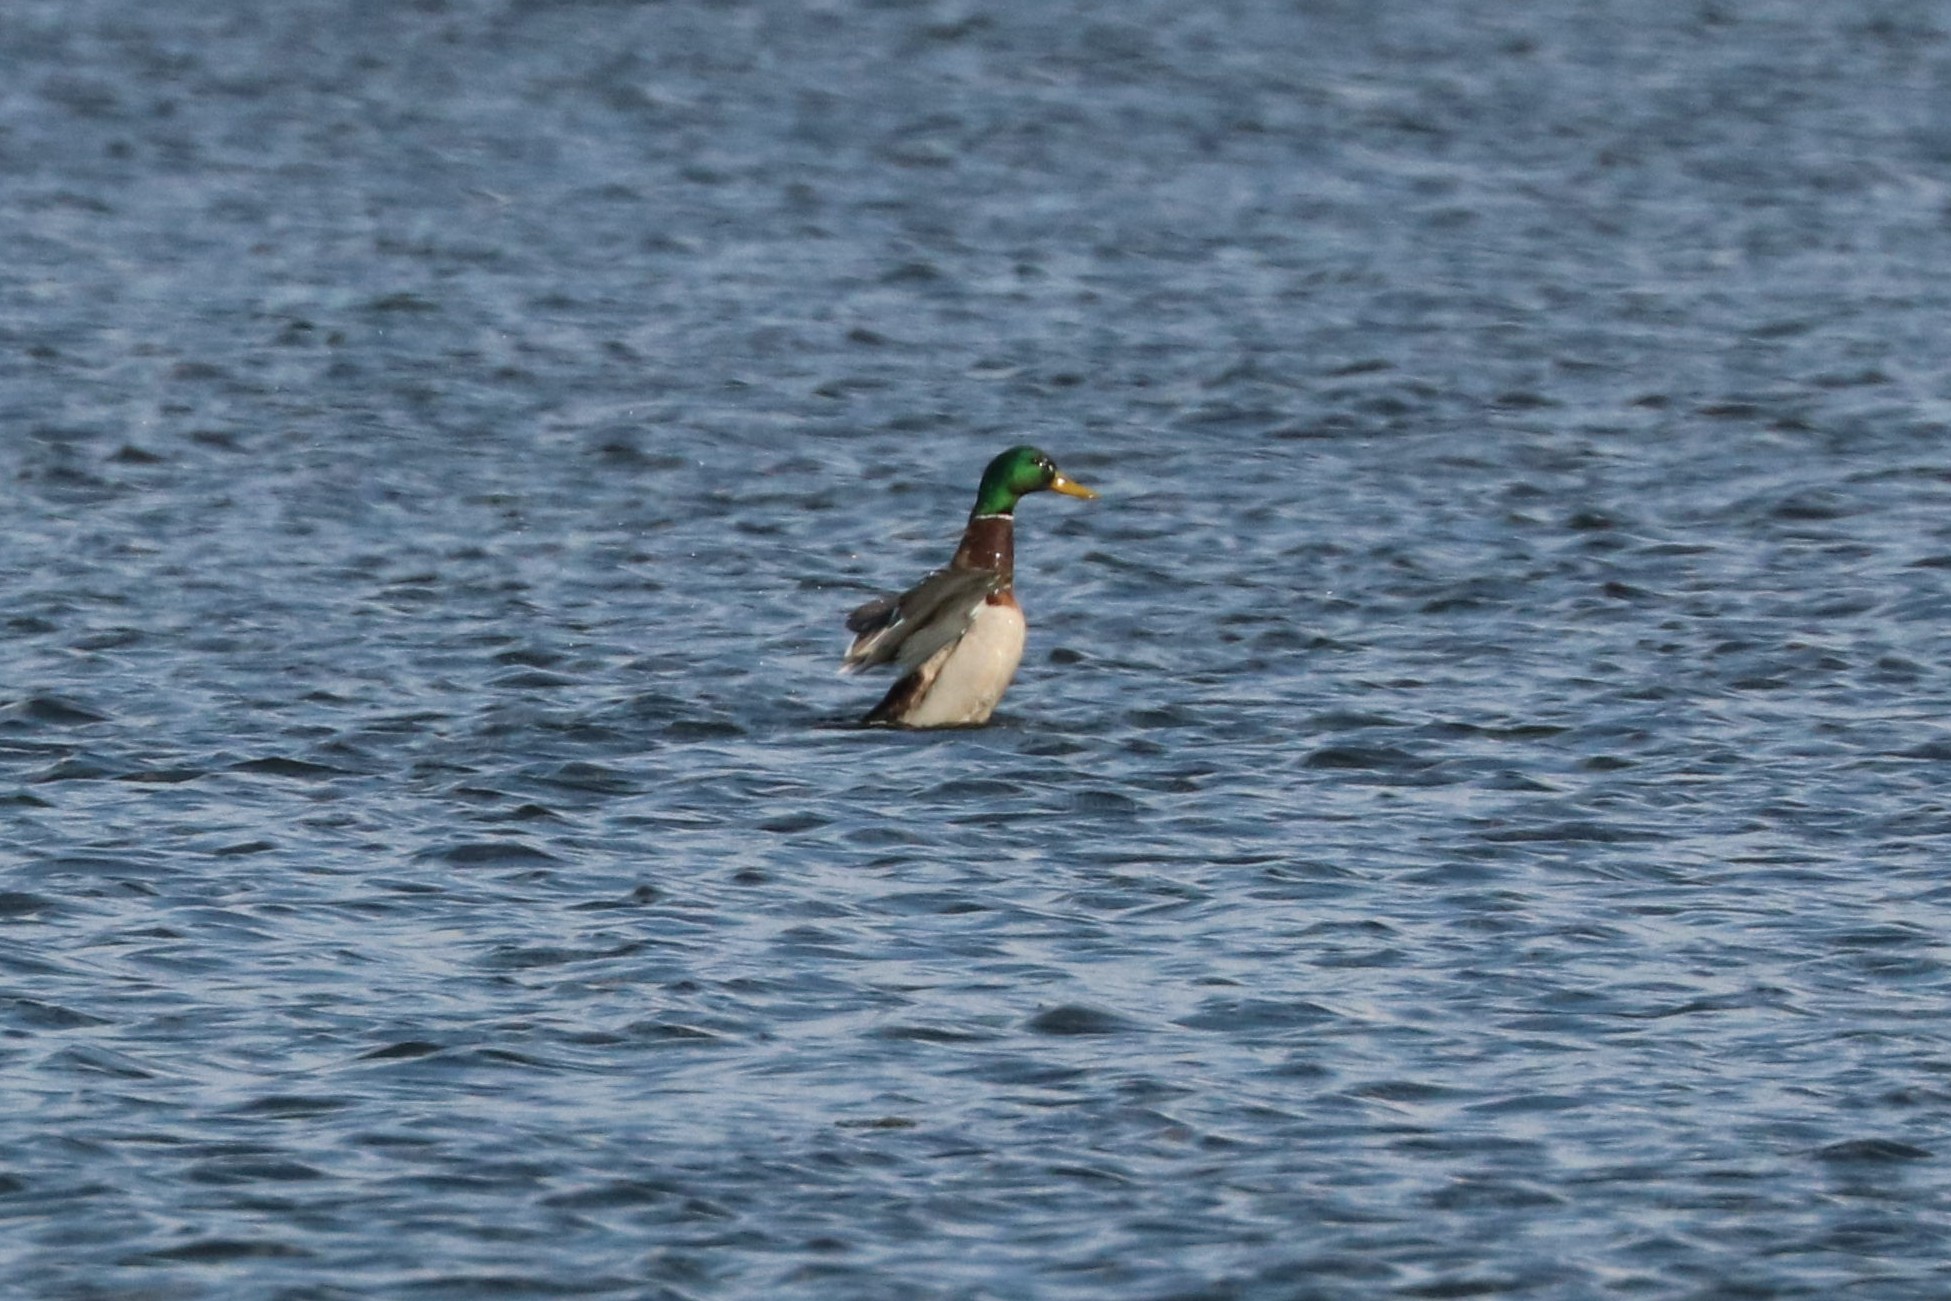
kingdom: Animalia
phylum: Chordata
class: Aves
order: Anseriformes
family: Anatidae
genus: Anas
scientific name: Anas platyrhynchos
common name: Mallard
